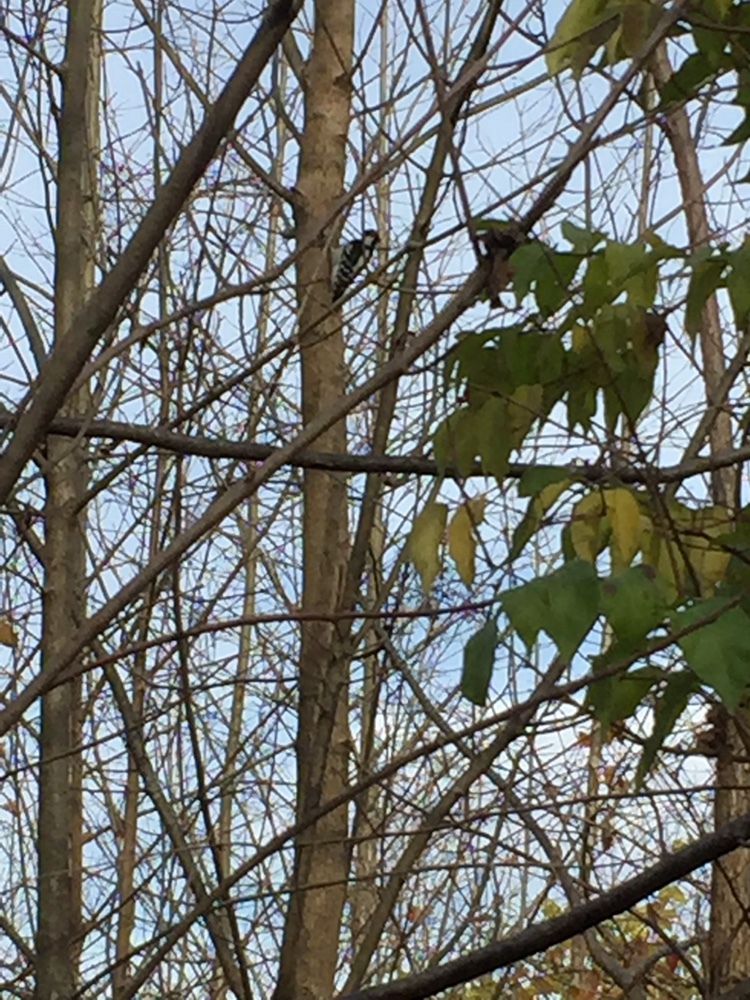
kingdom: Animalia
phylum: Chordata
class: Aves
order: Piciformes
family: Picidae
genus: Dryobates
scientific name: Dryobates pubescens
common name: Downy woodpecker
